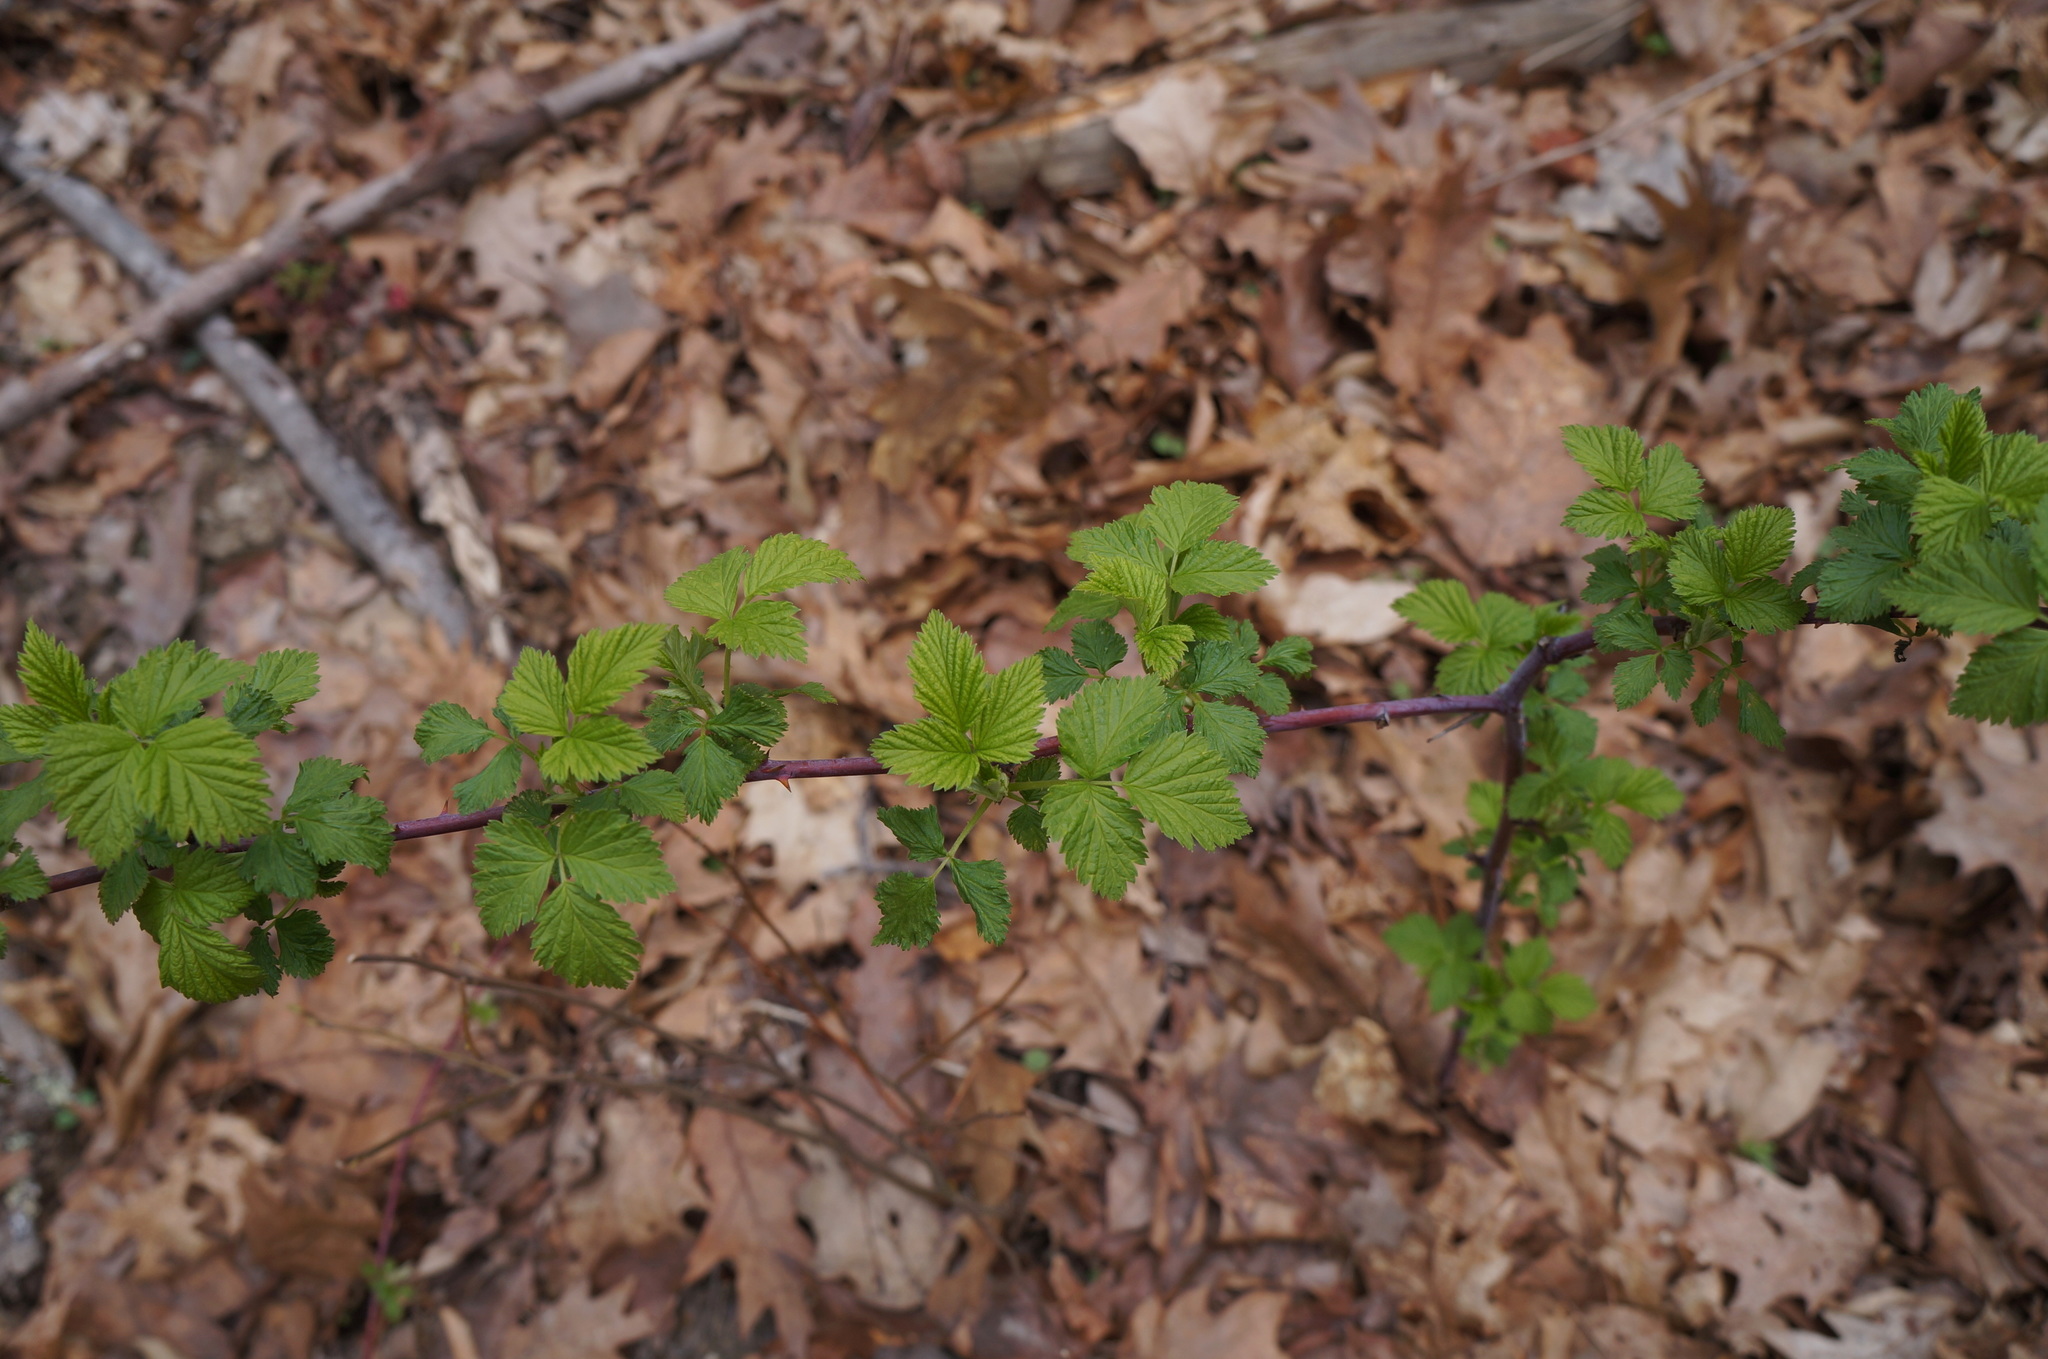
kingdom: Plantae
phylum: Tracheophyta
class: Magnoliopsida
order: Rosales
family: Rosaceae
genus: Rubus
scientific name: Rubus occidentalis
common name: Black raspberry
